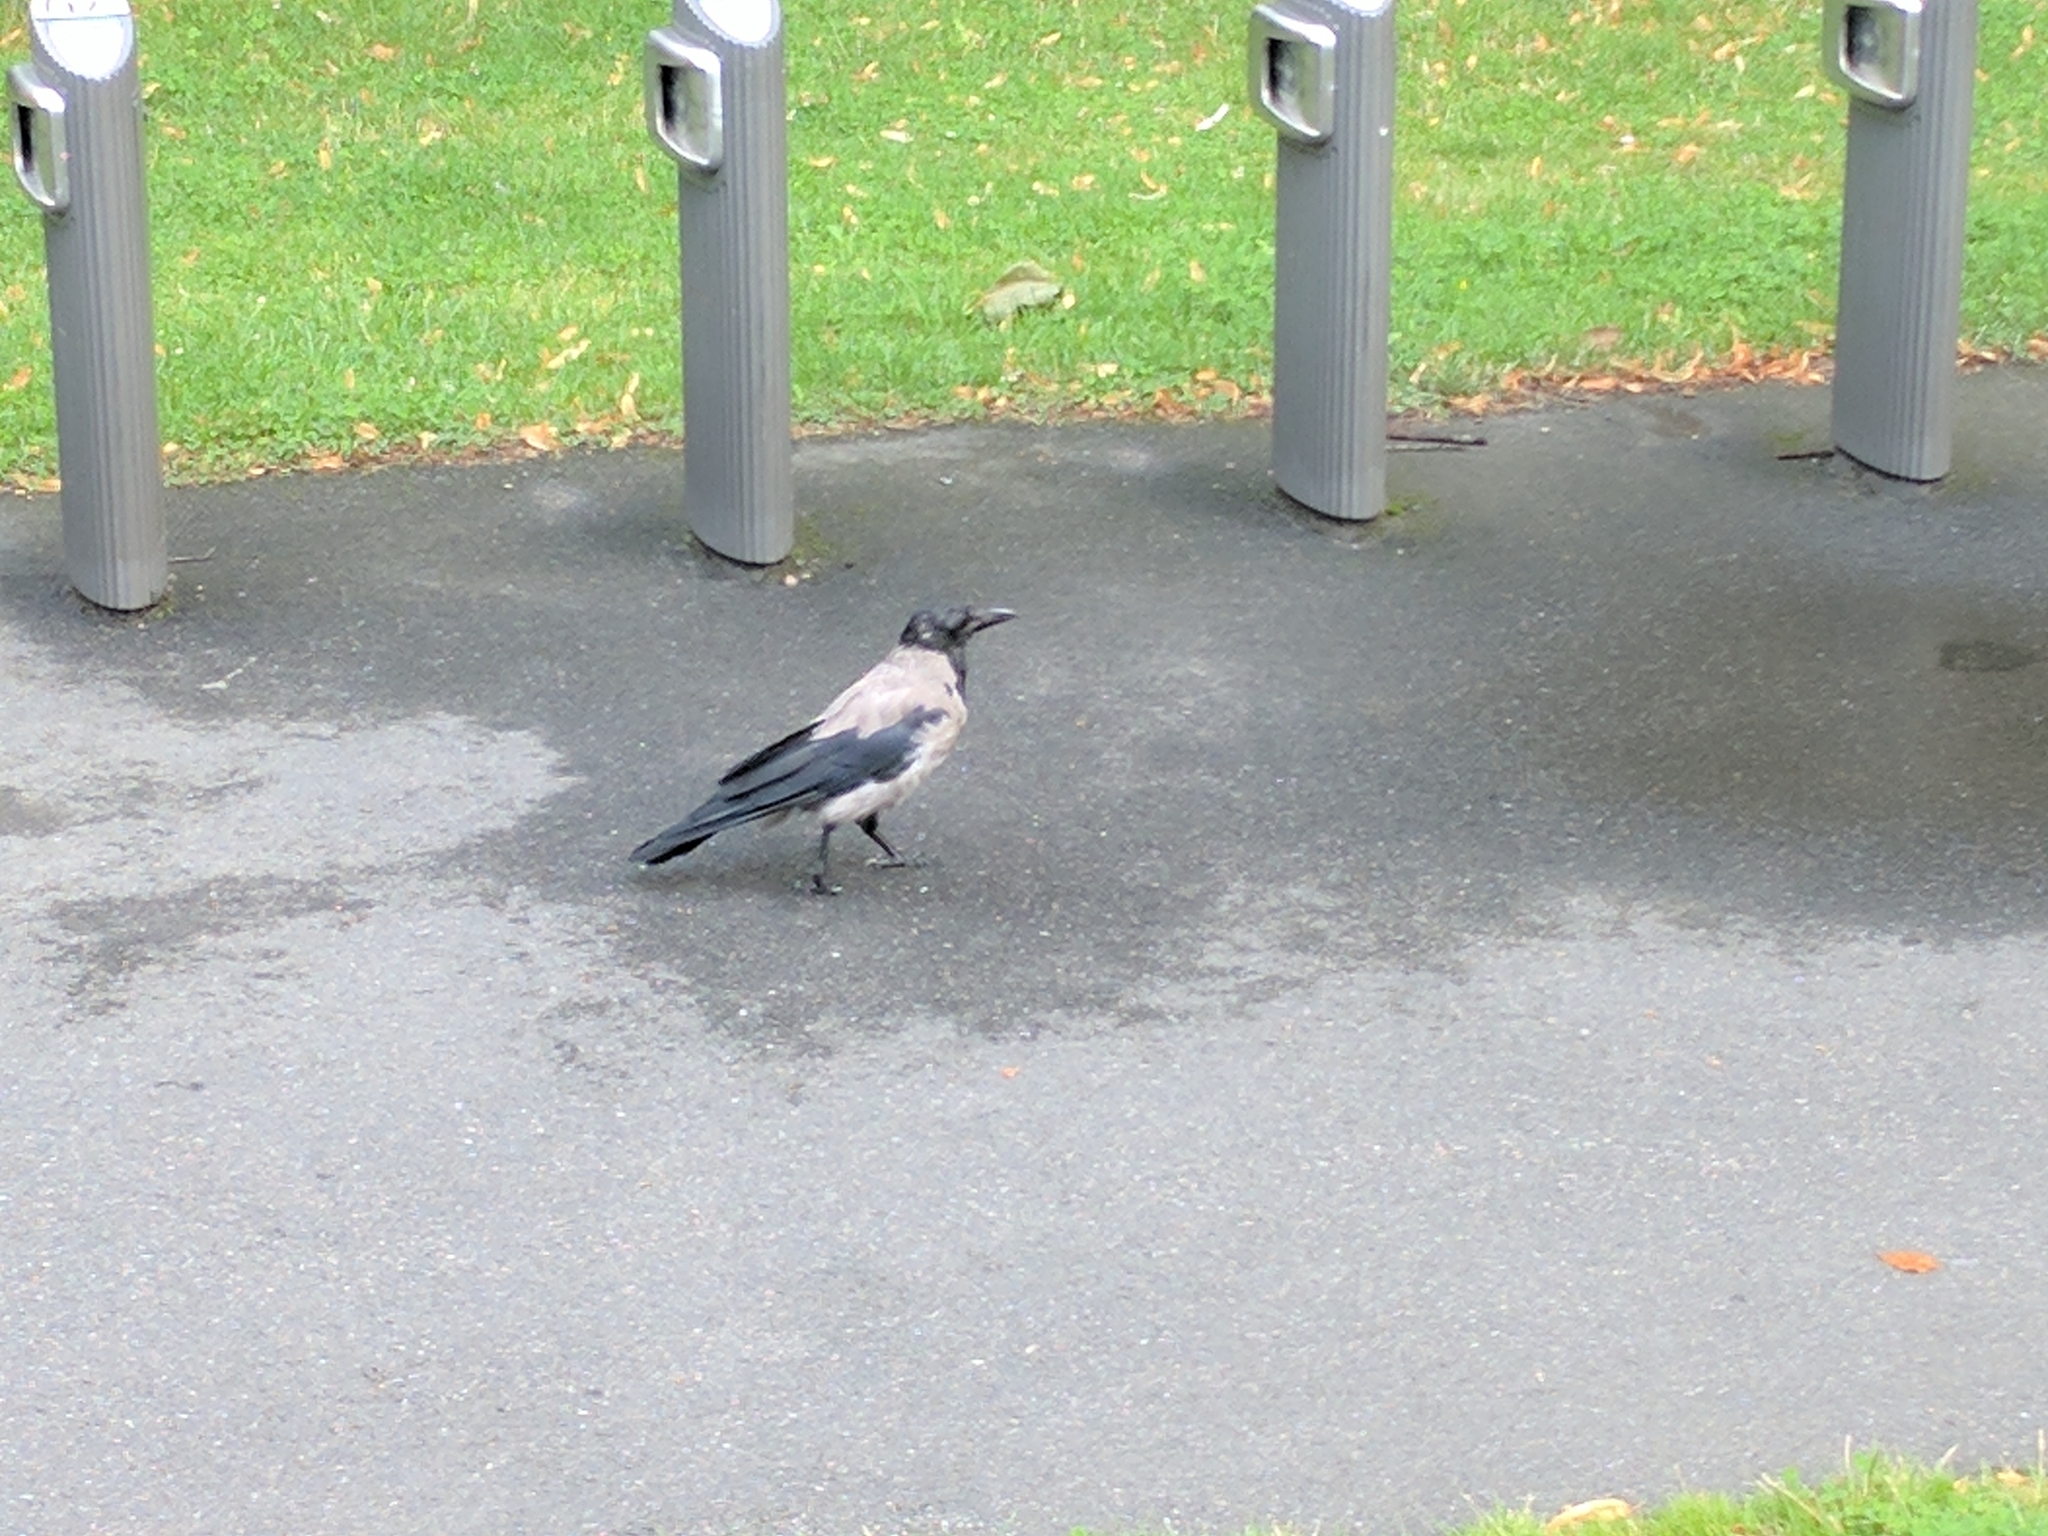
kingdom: Animalia
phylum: Chordata
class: Aves
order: Passeriformes
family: Corvidae
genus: Corvus
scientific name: Corvus cornix
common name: Hooded crow
